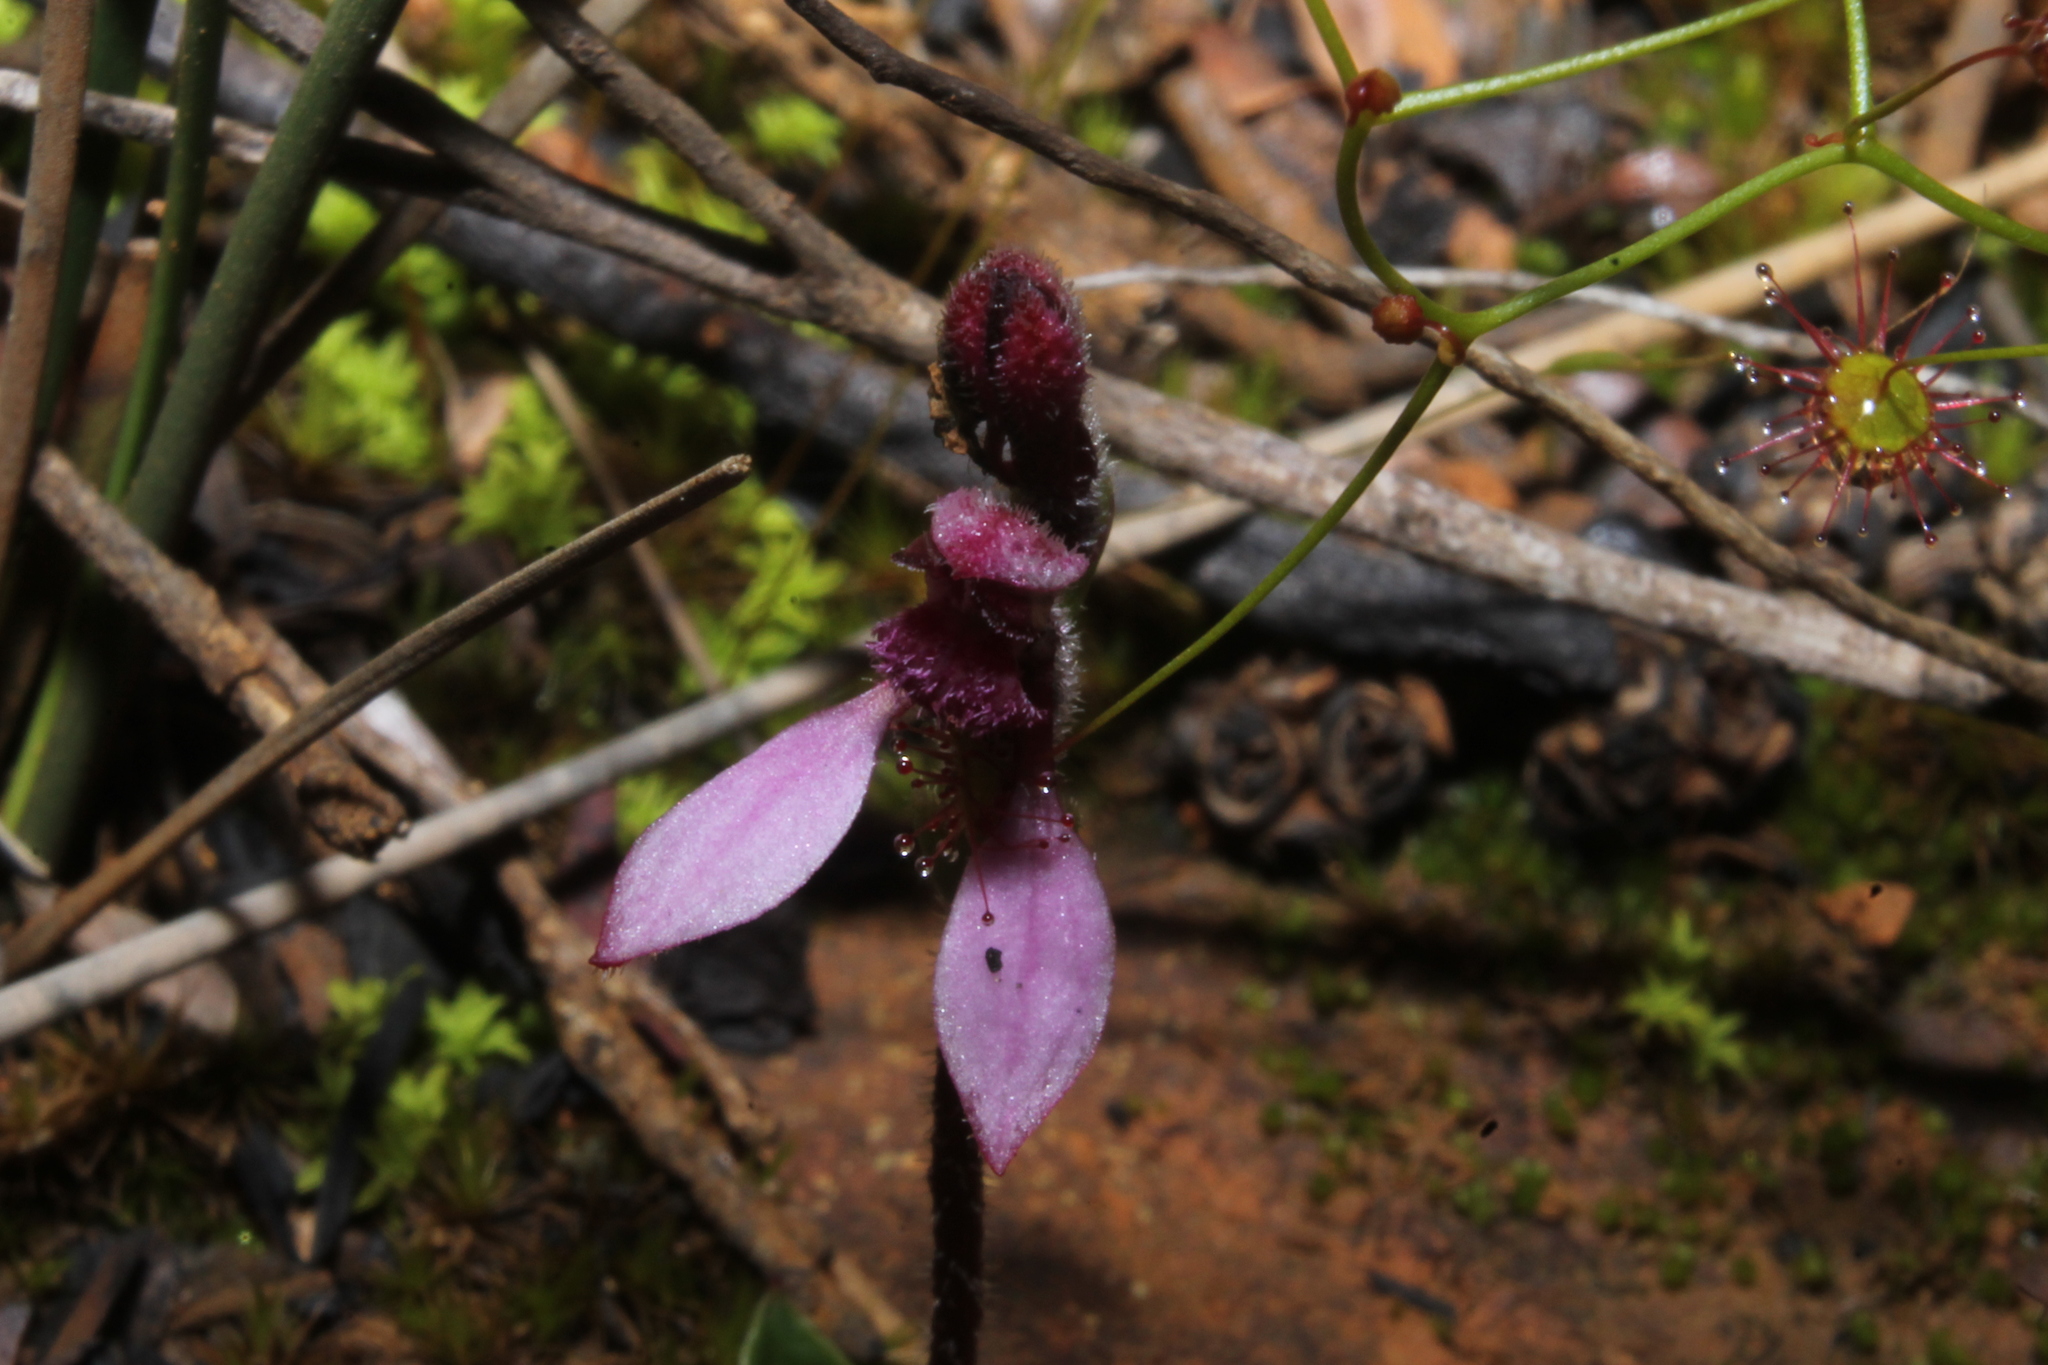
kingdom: Plantae
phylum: Tracheophyta
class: Liliopsida
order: Asparagales
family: Orchidaceae
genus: Eriochilus
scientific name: Eriochilus scaber
